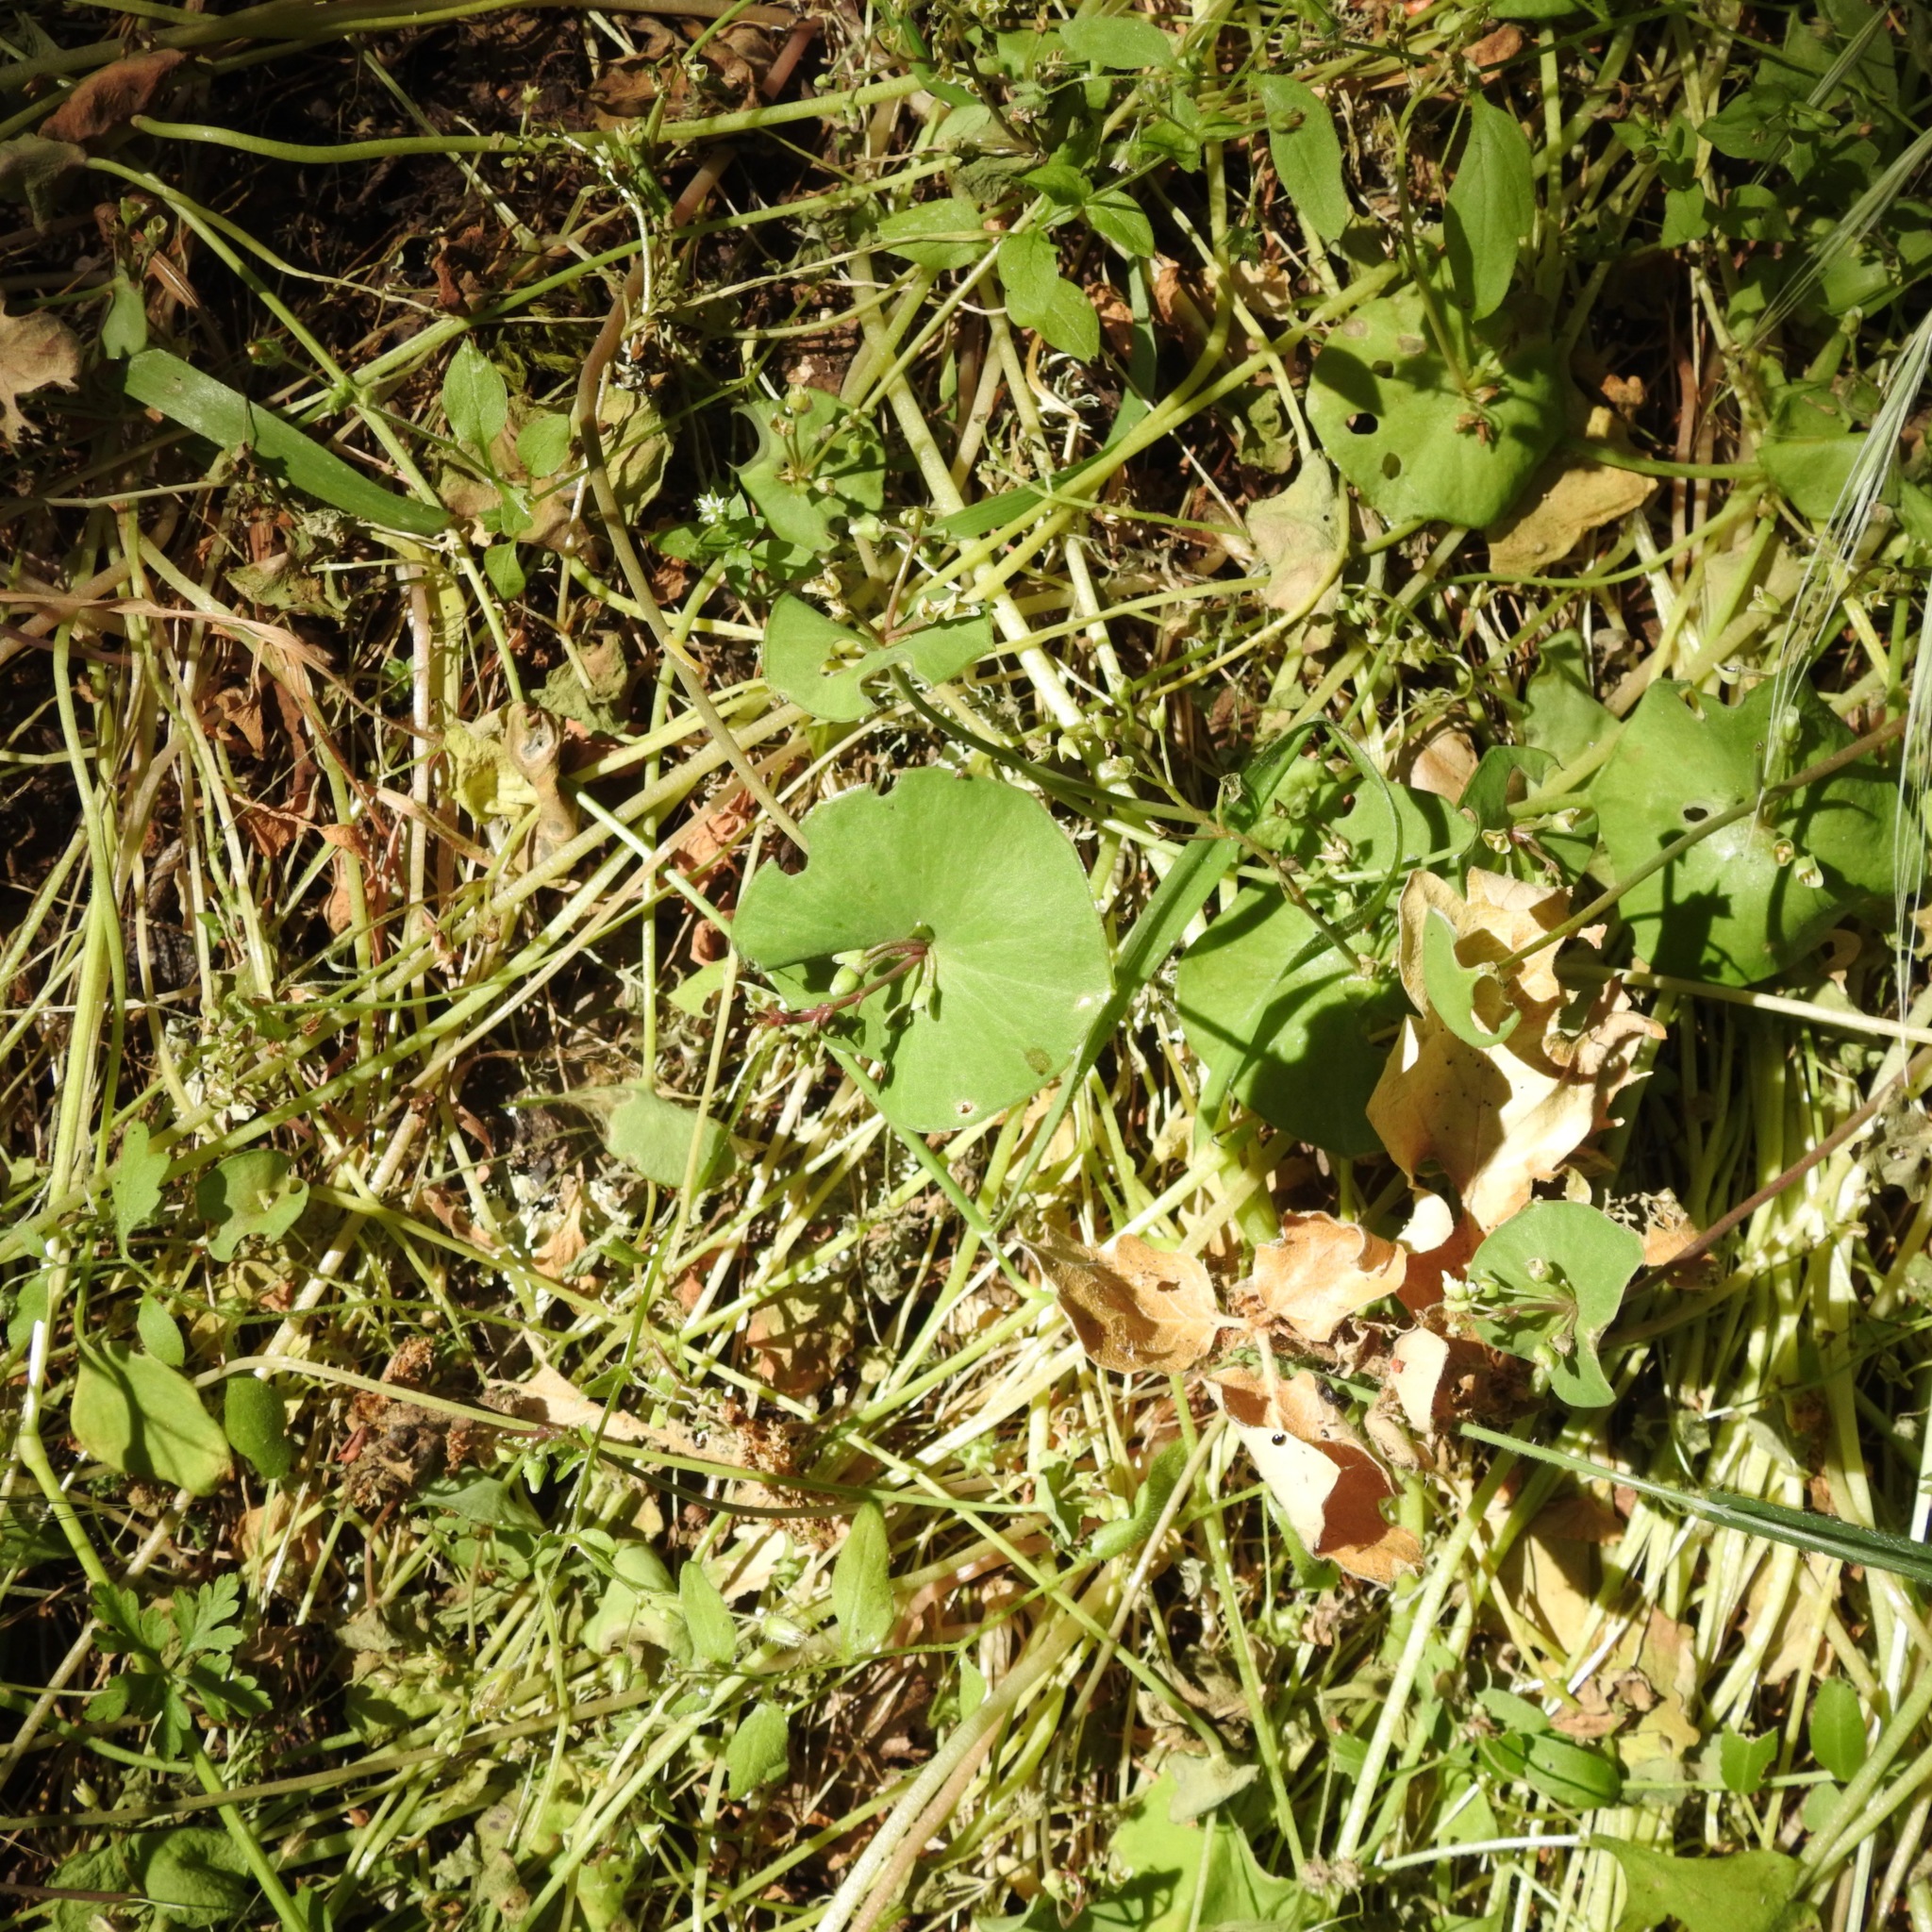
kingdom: Plantae
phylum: Tracheophyta
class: Magnoliopsida
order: Caryophyllales
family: Montiaceae
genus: Claytonia
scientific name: Claytonia perfoliata
